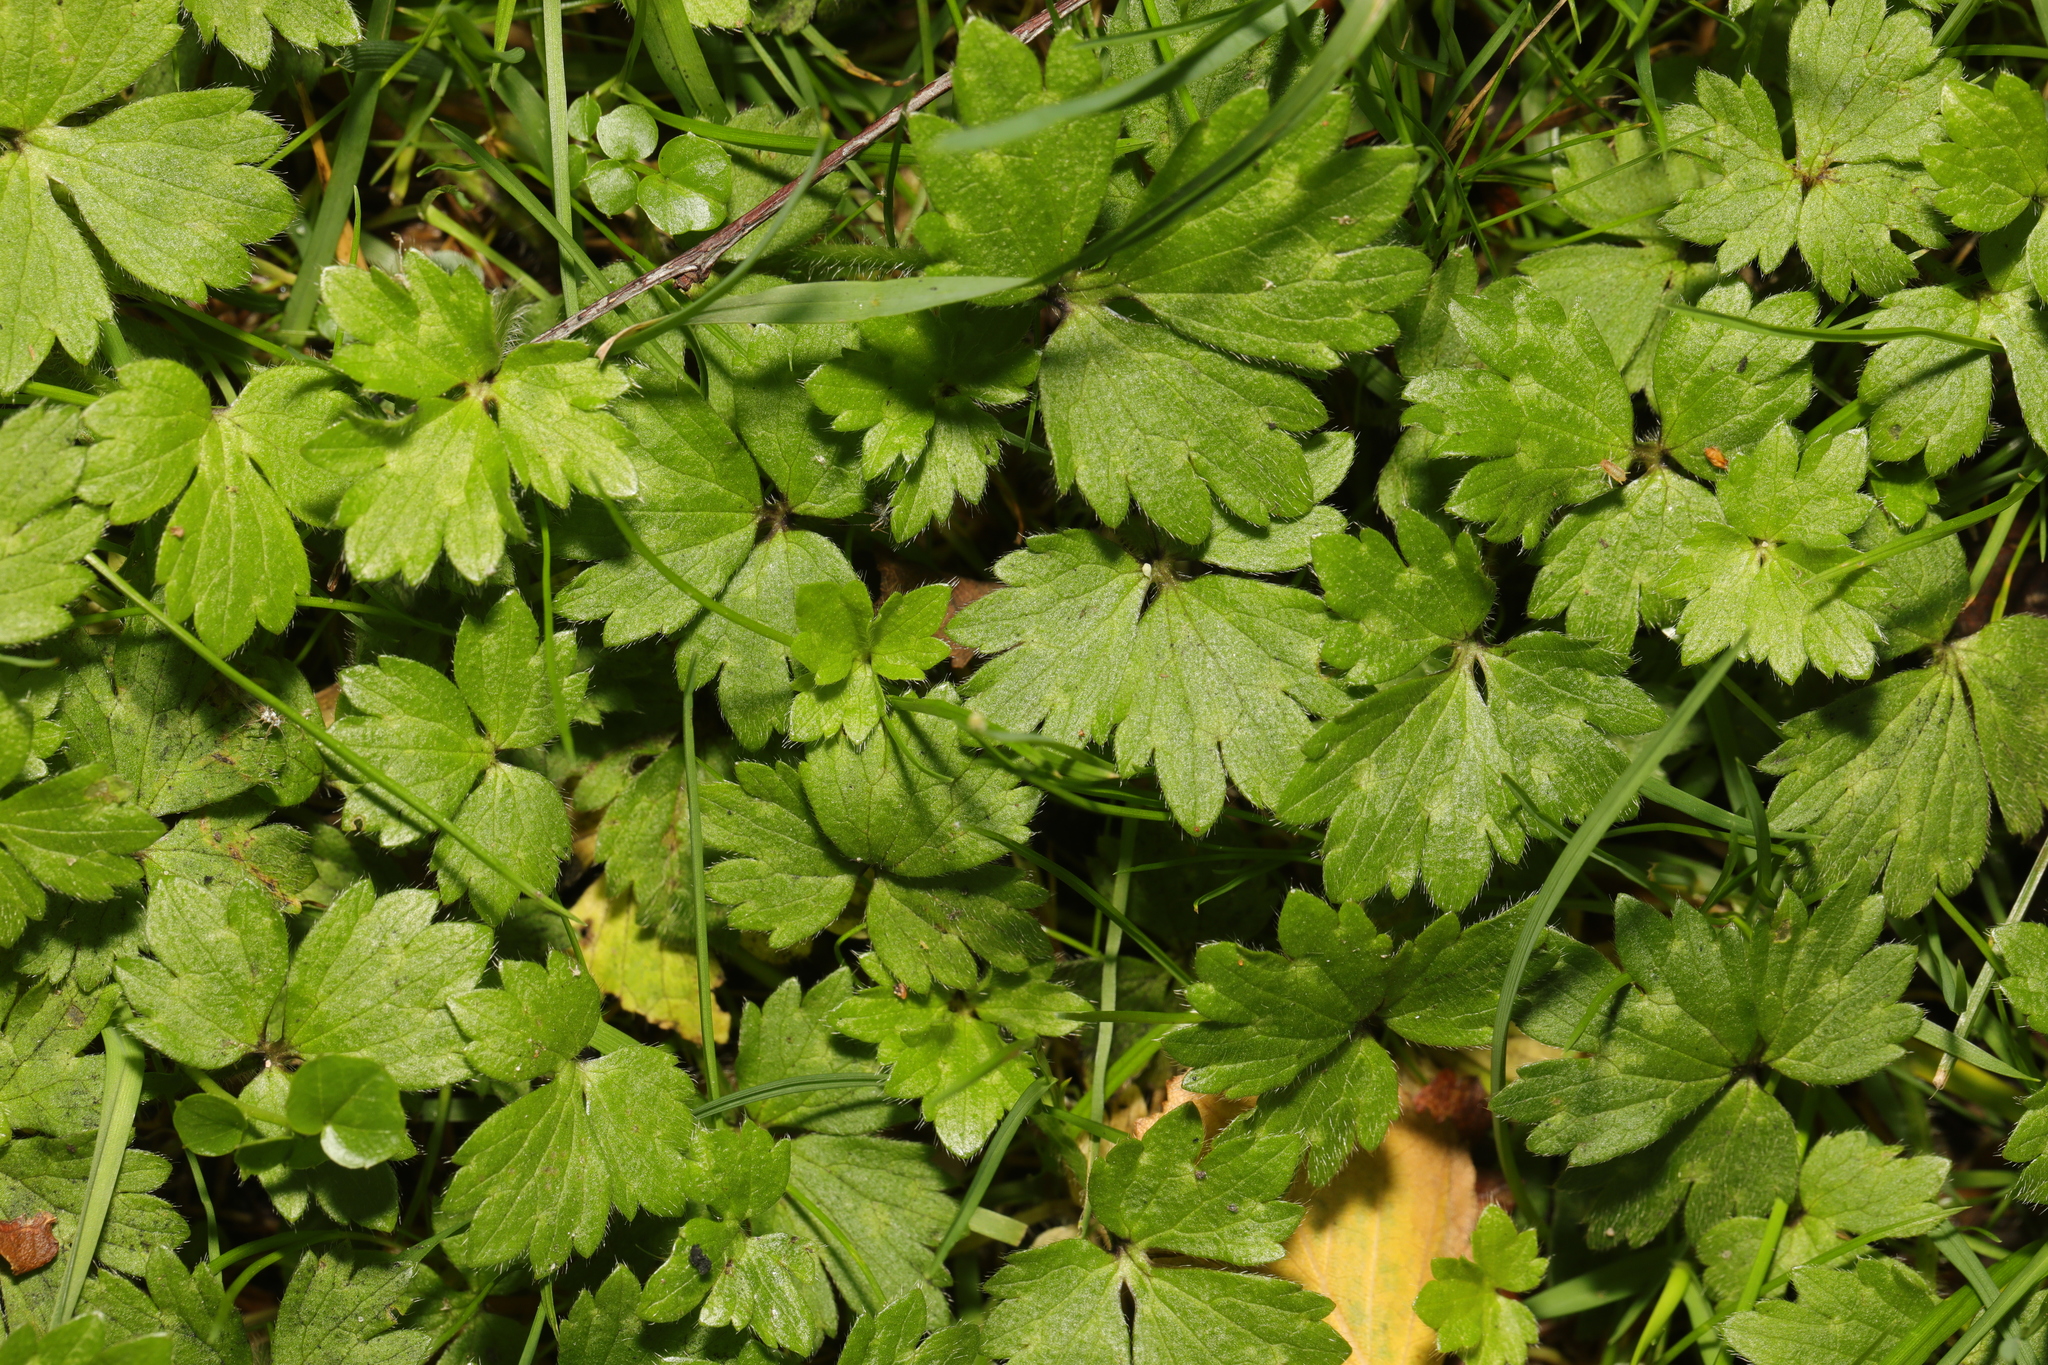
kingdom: Plantae
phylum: Tracheophyta
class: Magnoliopsida
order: Ranunculales
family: Ranunculaceae
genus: Ranunculus
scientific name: Ranunculus repens
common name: Creeping buttercup
